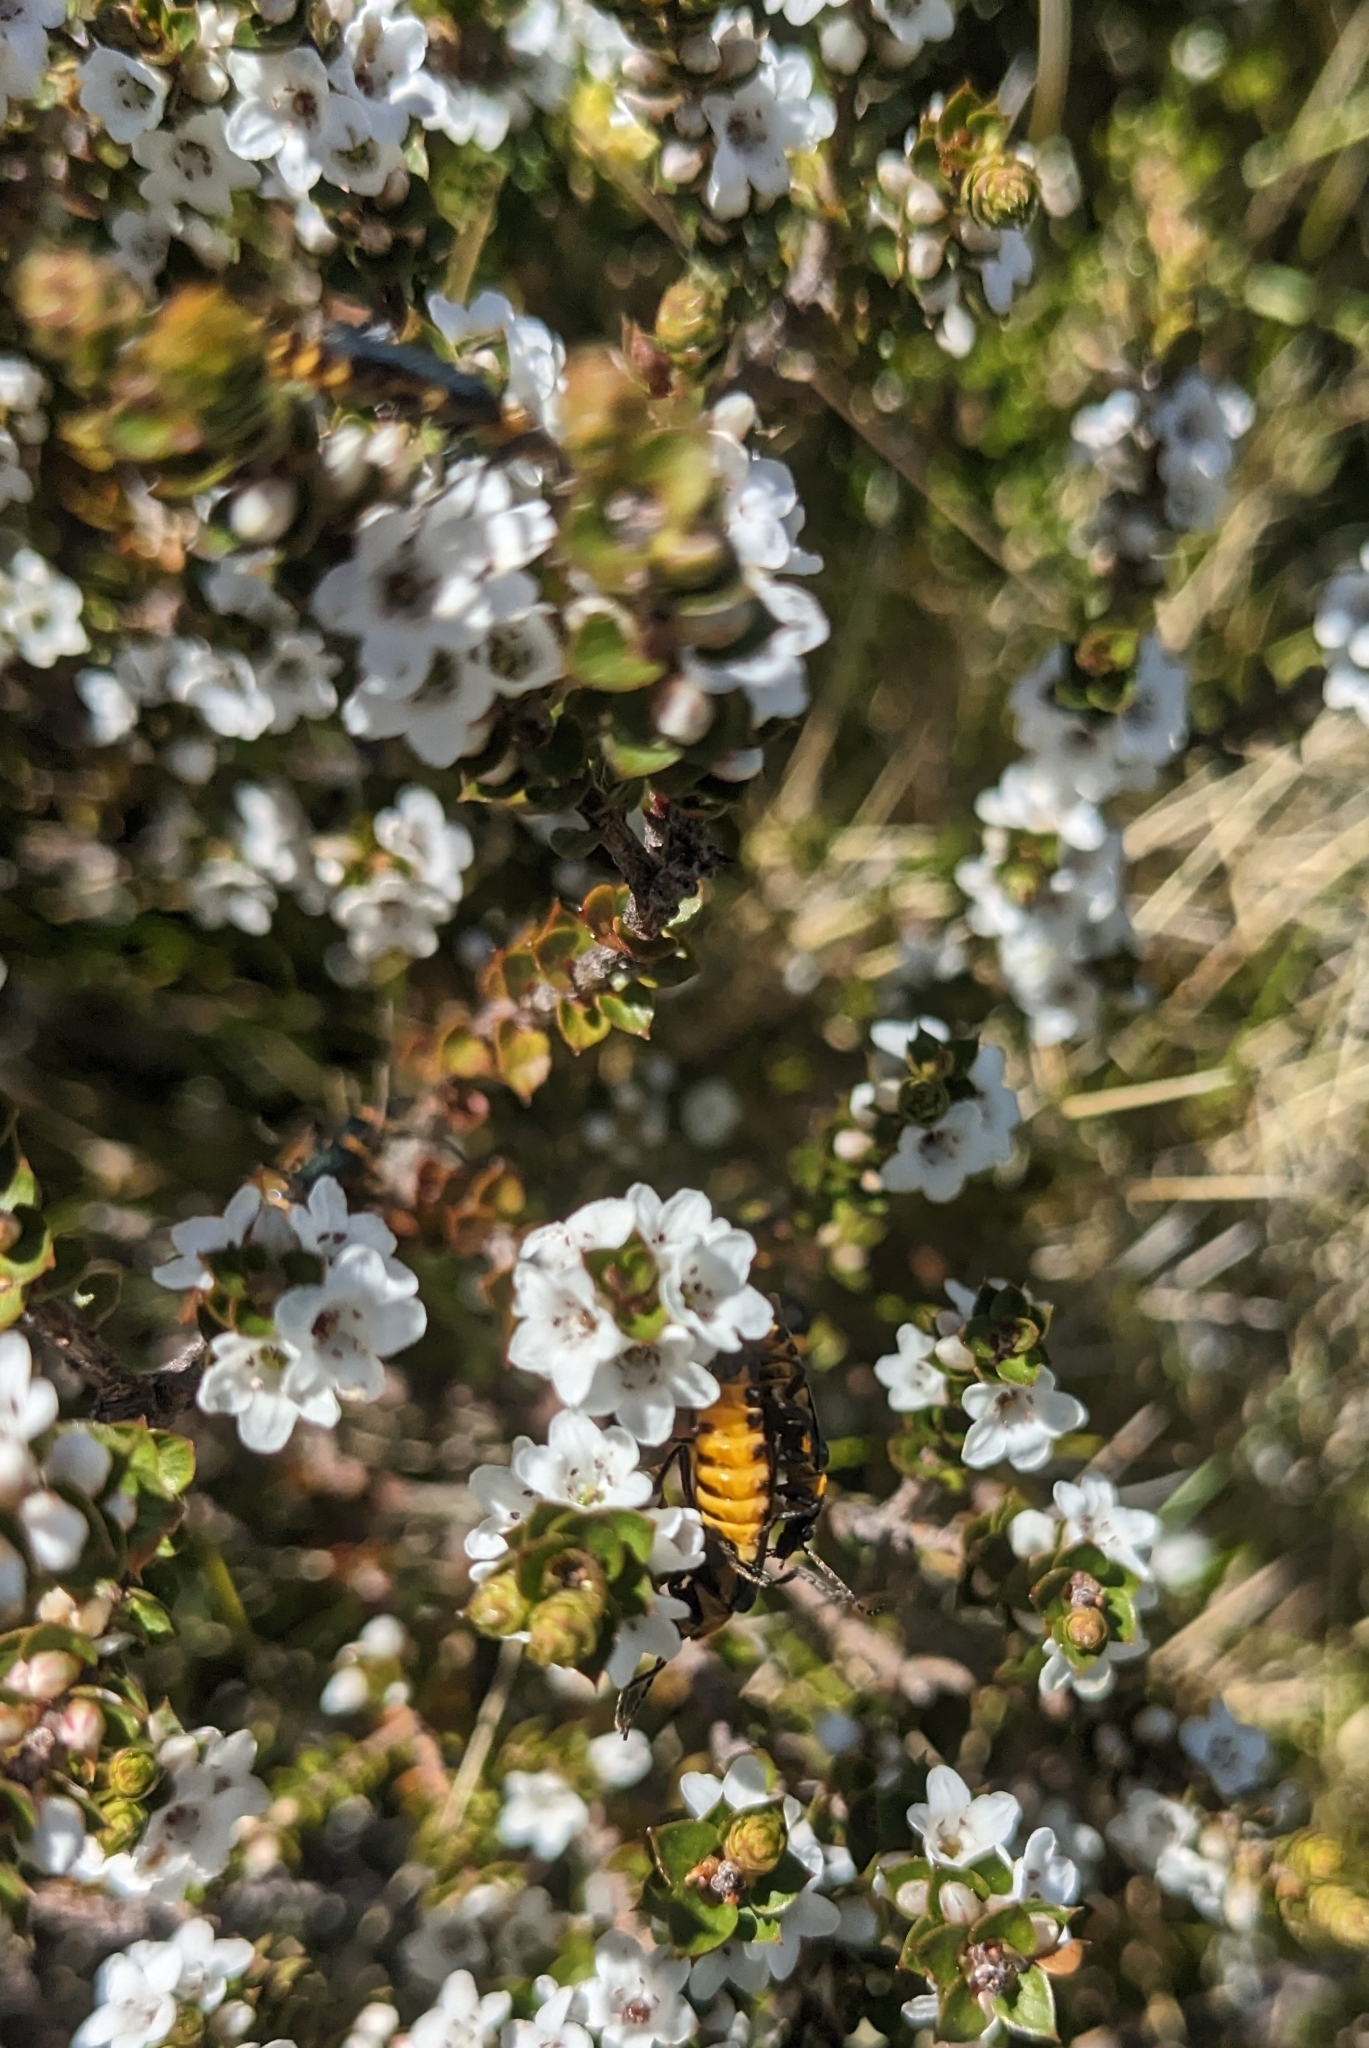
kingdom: Animalia
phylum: Arthropoda
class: Insecta
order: Coleoptera
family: Cantharidae
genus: Chauliognathus
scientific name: Chauliognathus
